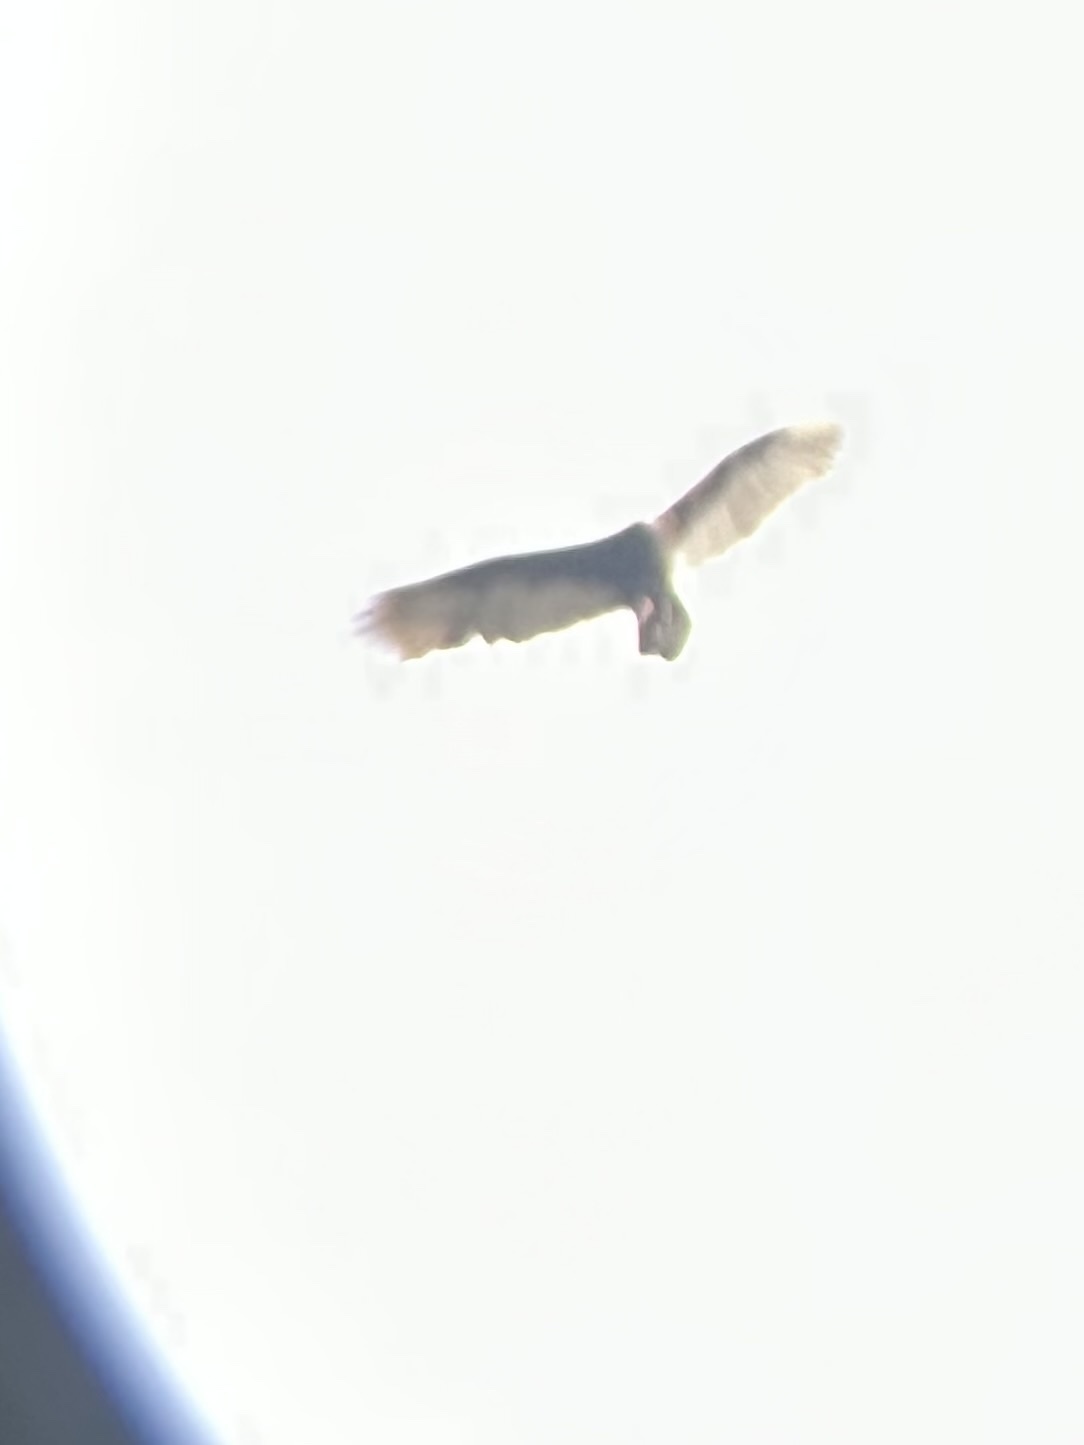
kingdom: Animalia
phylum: Chordata
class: Aves
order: Accipitriformes
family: Cathartidae
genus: Cathartes
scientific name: Cathartes aura
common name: Turkey vulture
